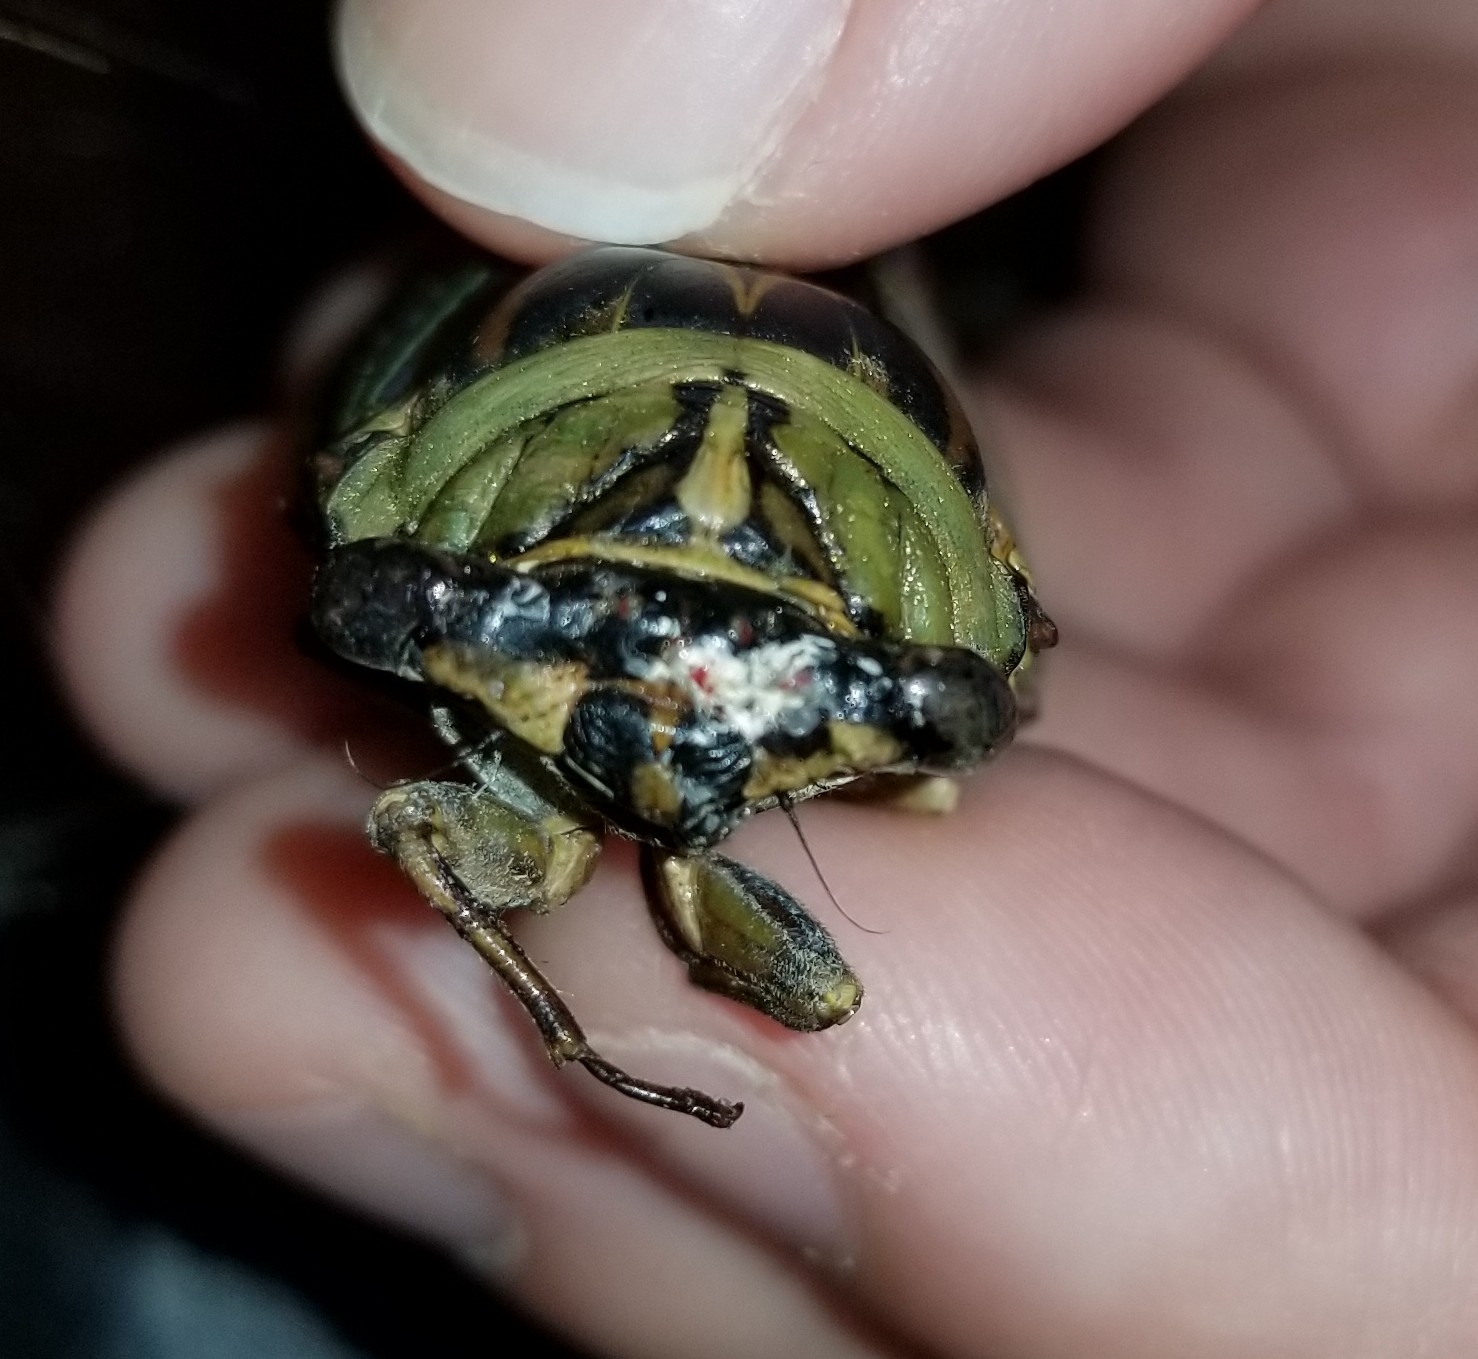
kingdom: Animalia
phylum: Arthropoda
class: Insecta
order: Hemiptera
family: Cicadidae
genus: Megatibicen
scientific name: Megatibicen resh
